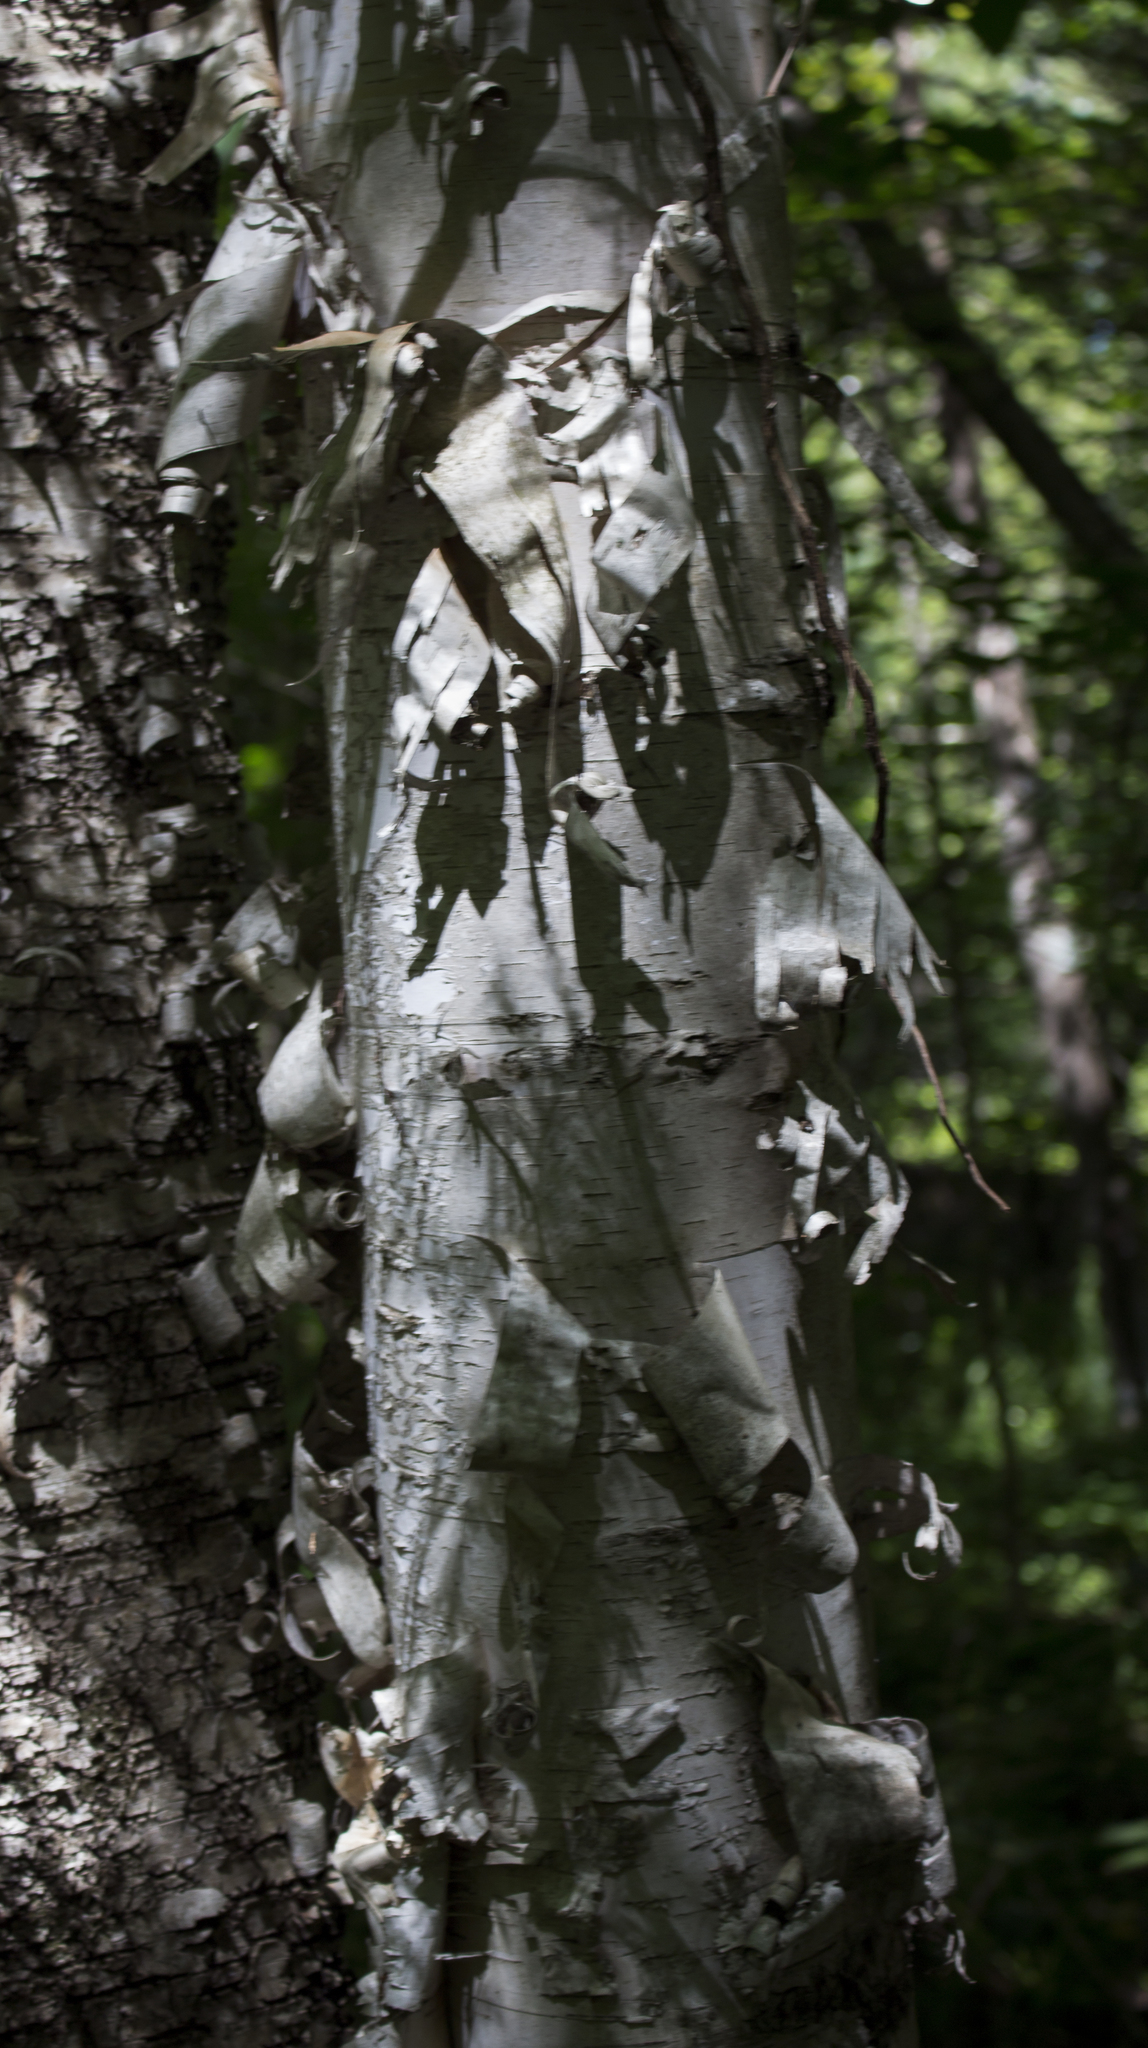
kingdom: Plantae
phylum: Tracheophyta
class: Magnoliopsida
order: Fagales
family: Betulaceae
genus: Betula
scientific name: Betula papyrifera
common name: Paper birch
